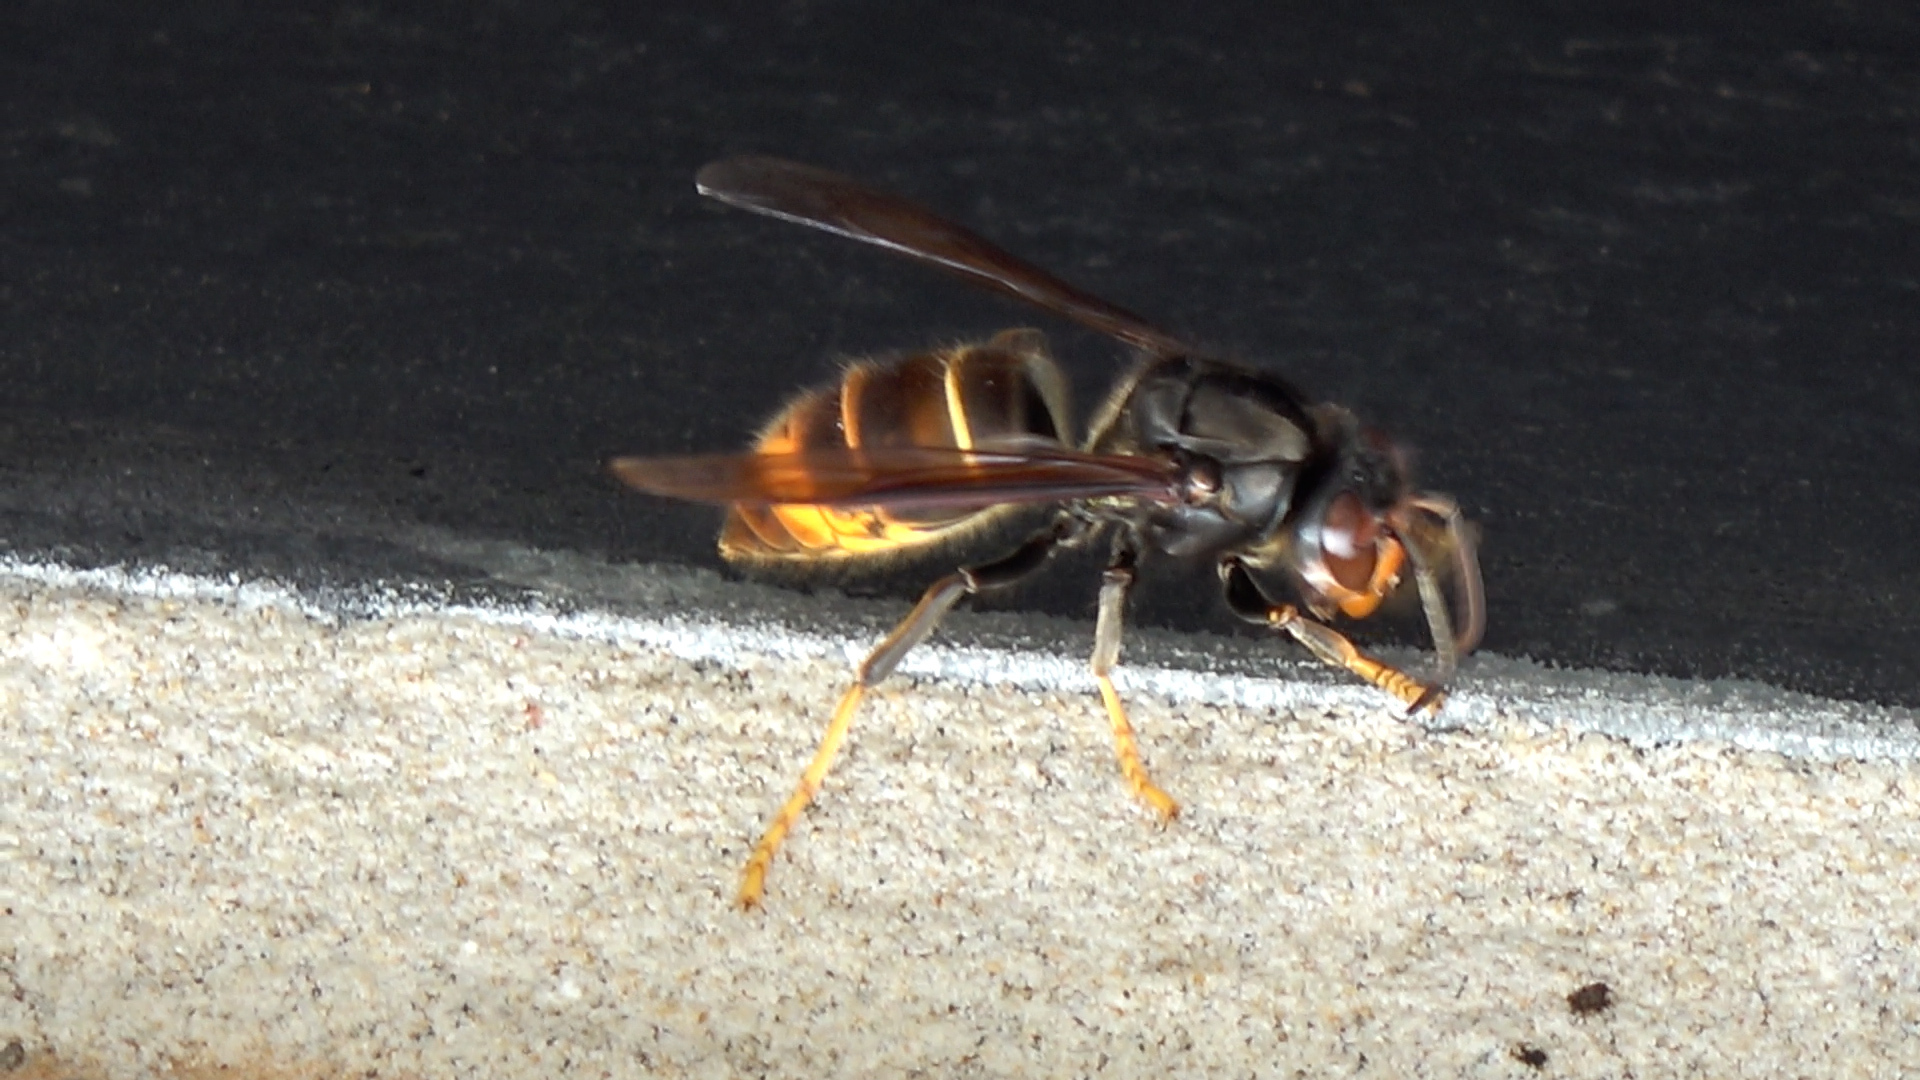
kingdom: Animalia
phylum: Arthropoda
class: Insecta
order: Hymenoptera
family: Vespidae
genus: Vespa
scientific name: Vespa velutina
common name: Asian hornet
